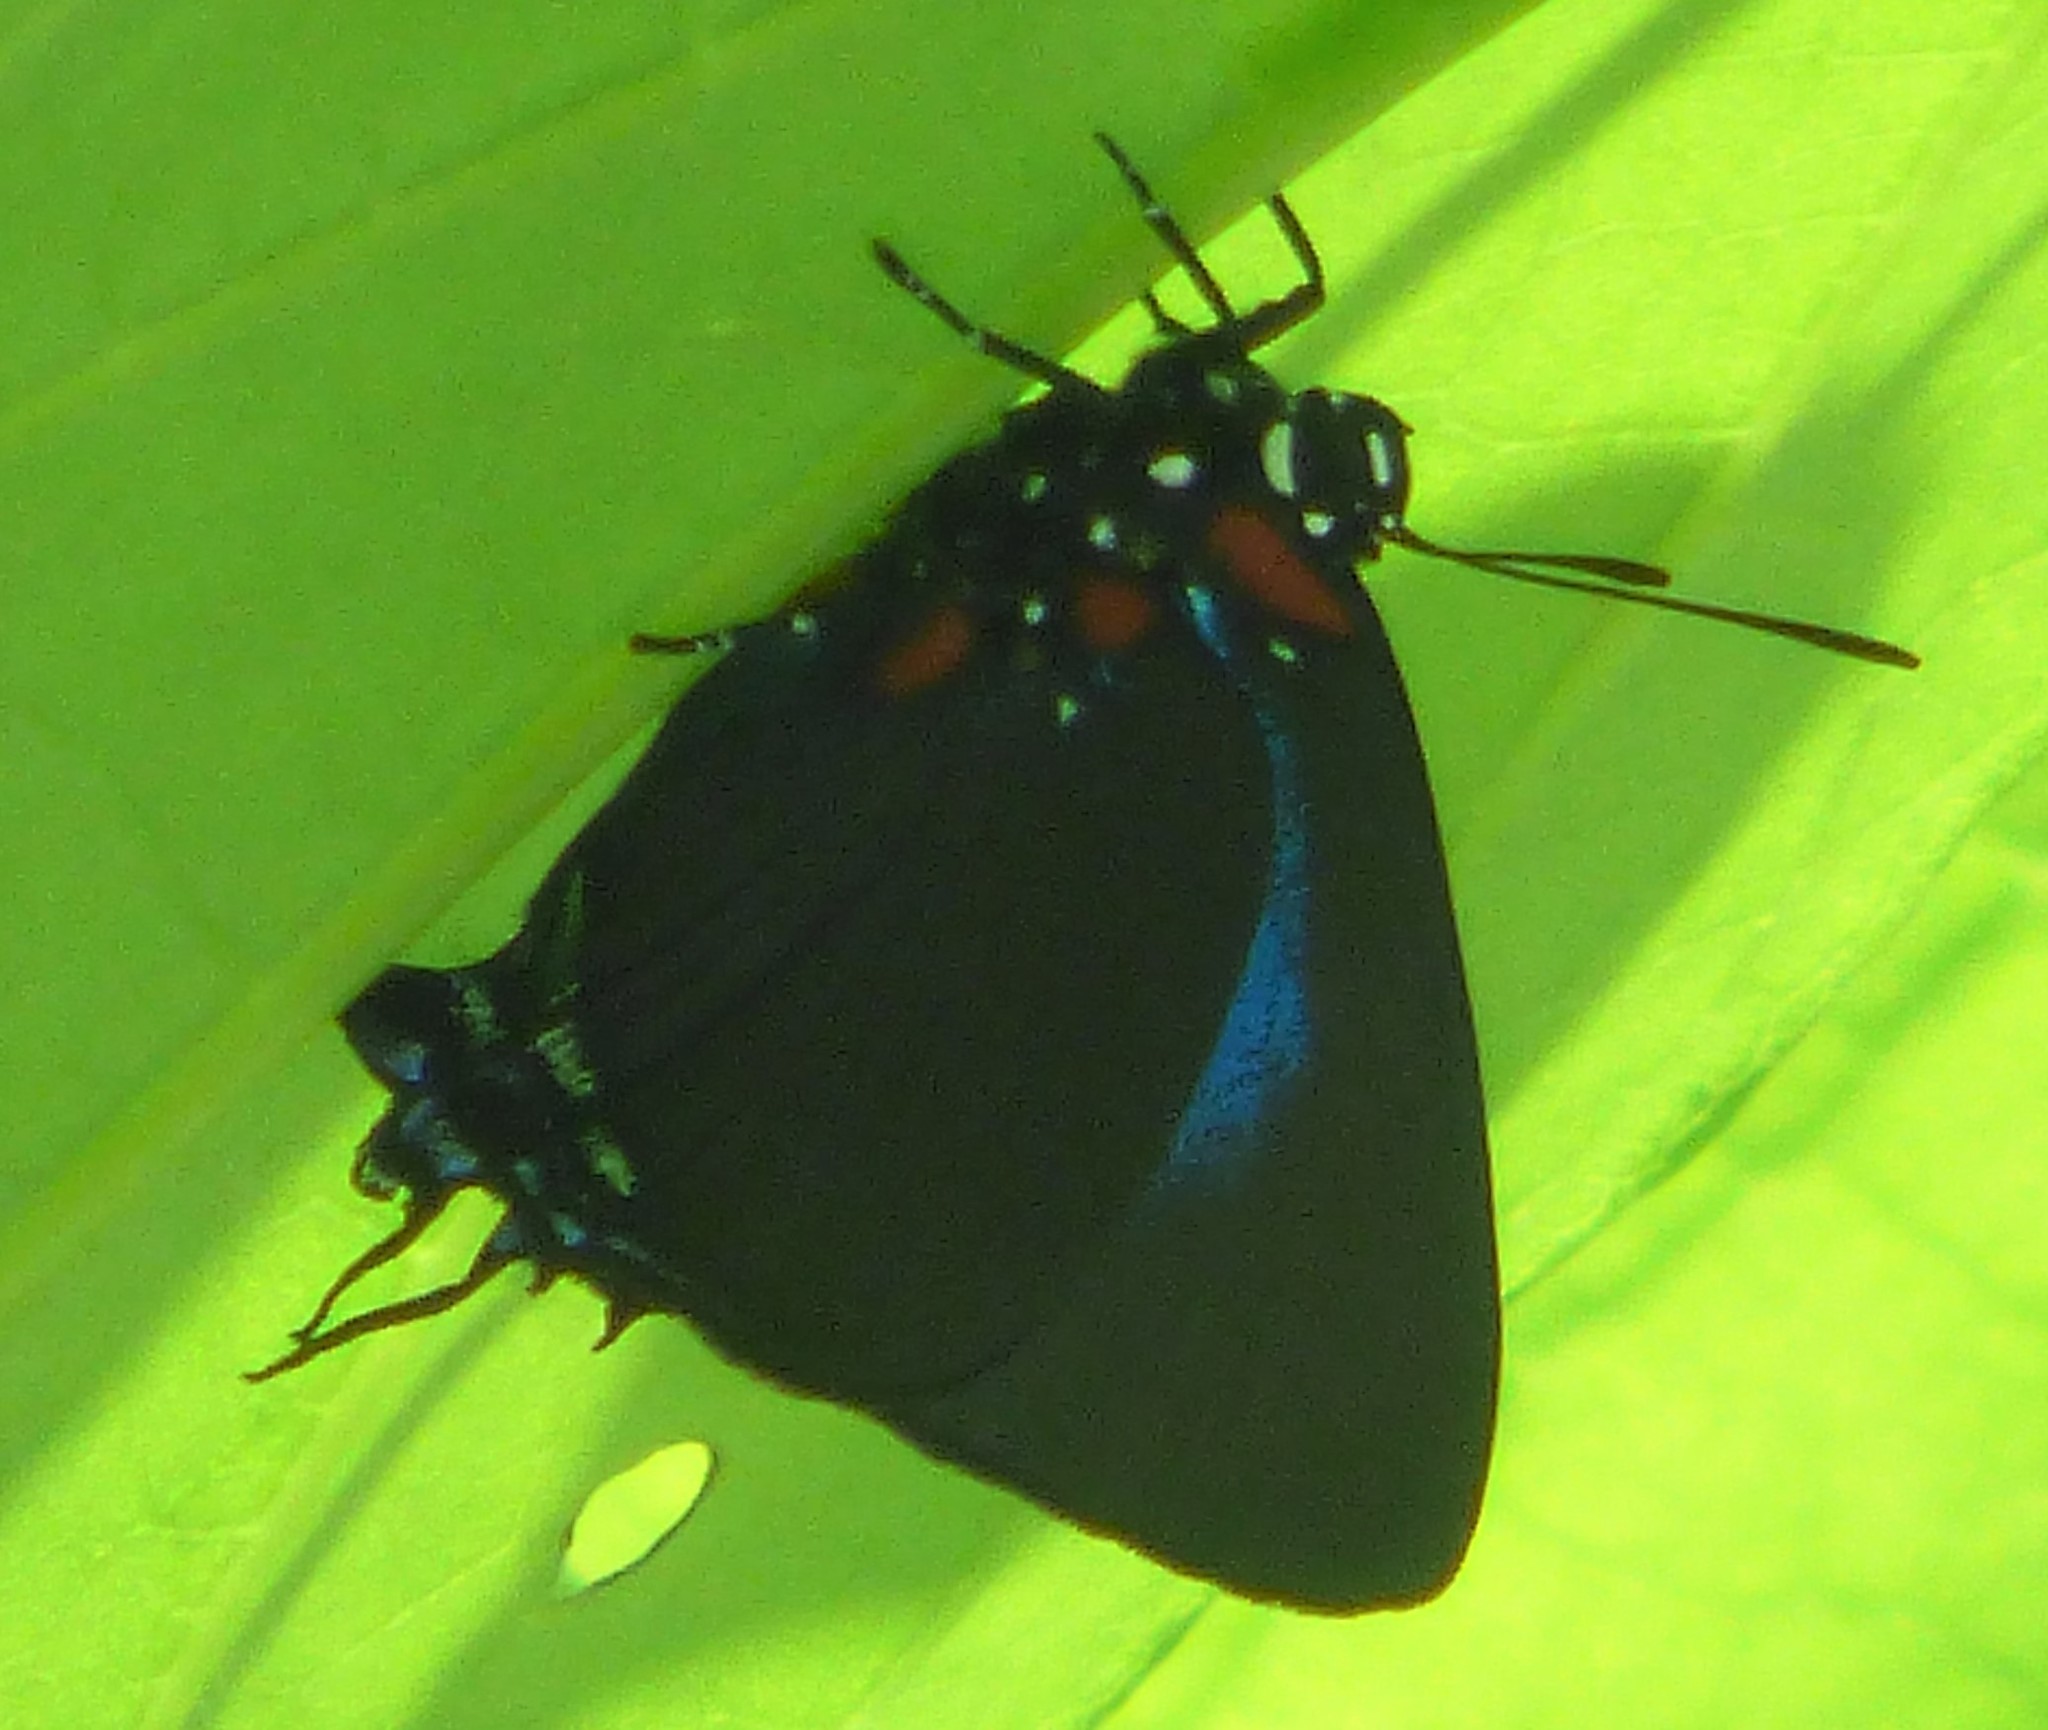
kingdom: Animalia
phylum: Arthropoda
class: Insecta
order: Lepidoptera
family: Lycaenidae
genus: Atlides
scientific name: Atlides halesus
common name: Great purple hairstreak
